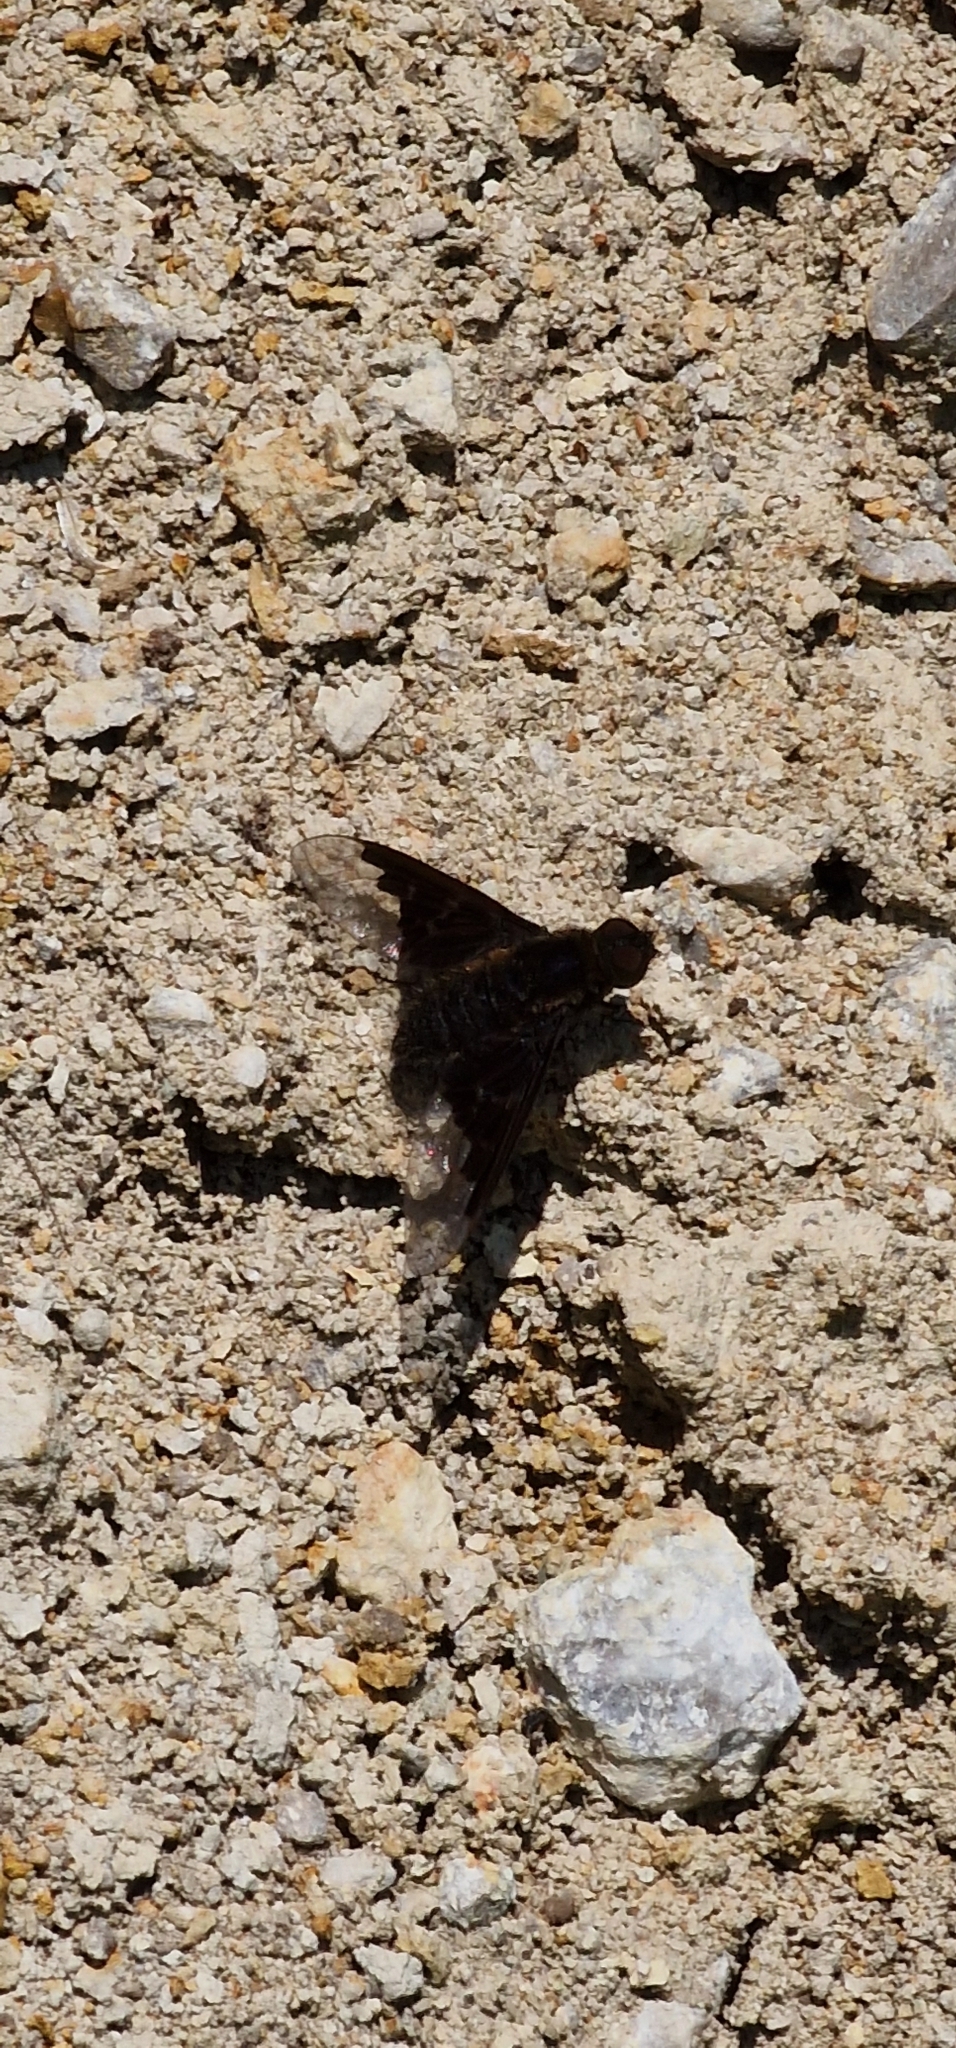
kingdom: Animalia
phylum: Arthropoda
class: Insecta
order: Diptera
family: Bombyliidae
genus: Hemipenthes
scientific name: Hemipenthes morio
